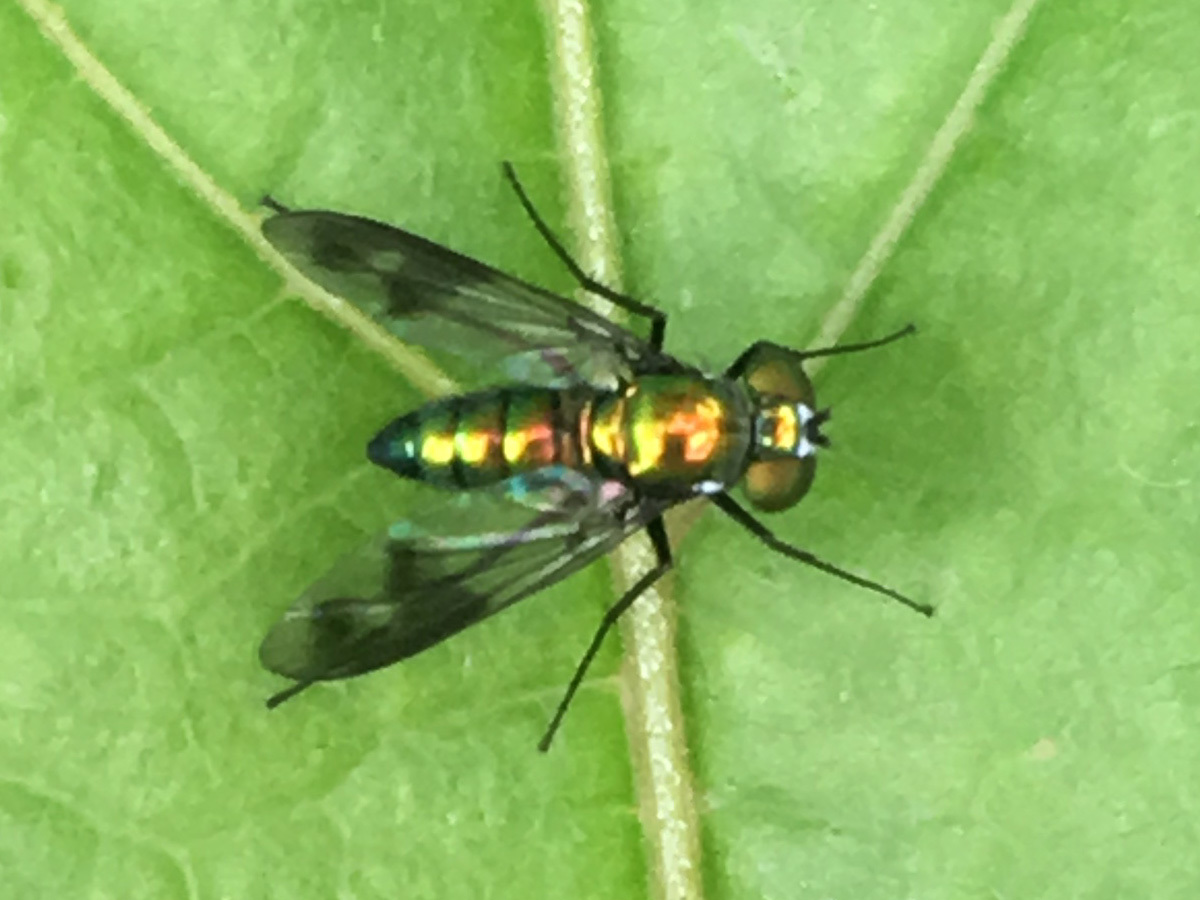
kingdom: Animalia
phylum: Arthropoda
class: Insecta
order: Diptera
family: Dolichopodidae
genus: Condylostylus
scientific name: Condylostylus patibulatus
